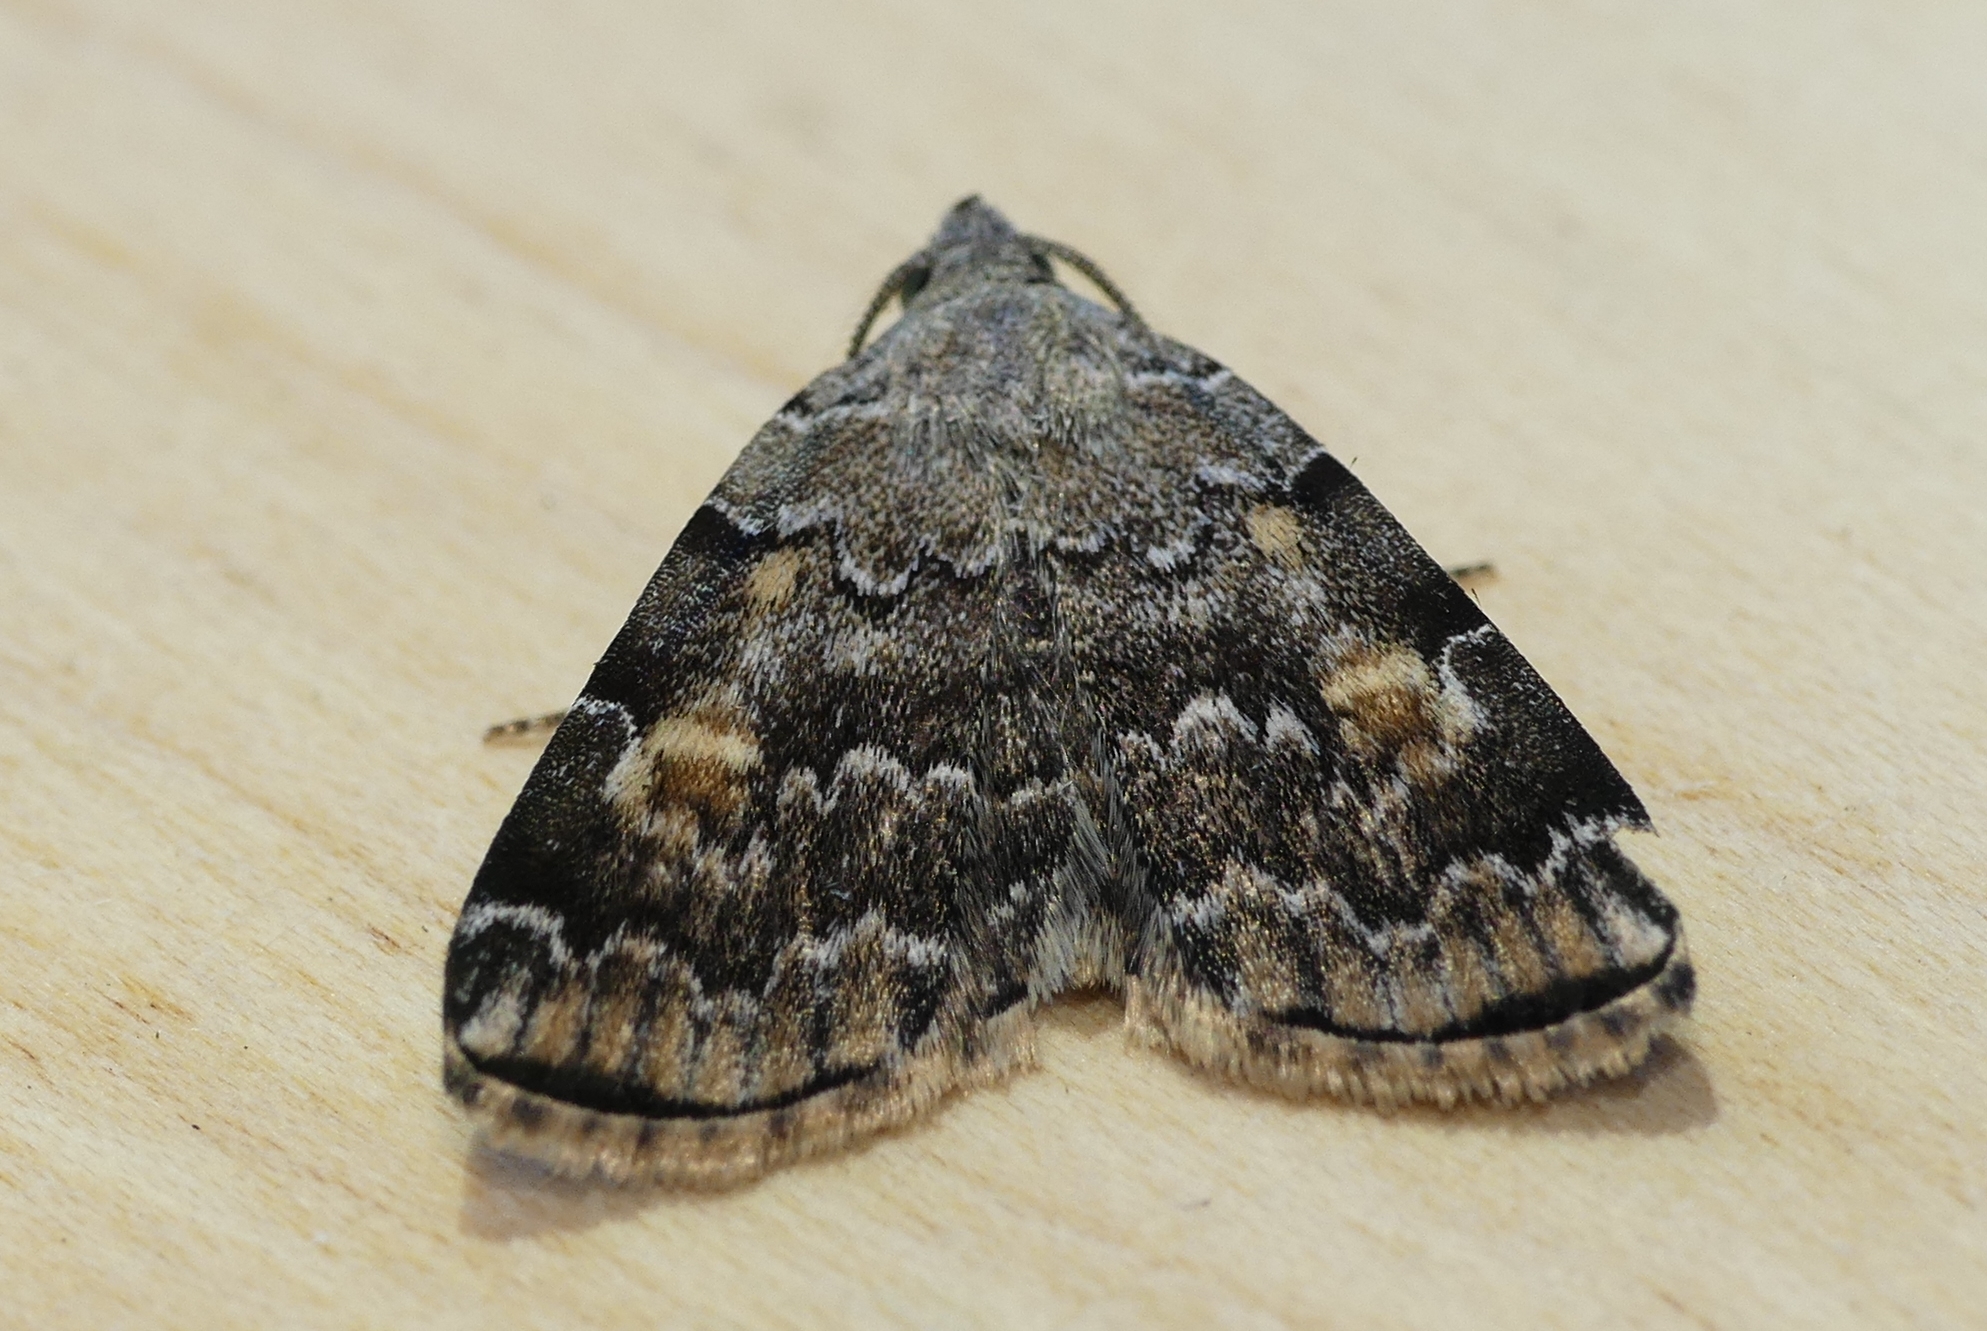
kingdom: Animalia
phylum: Arthropoda
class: Insecta
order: Lepidoptera
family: Erebidae
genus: Idia
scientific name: Idia americalis
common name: American idia moth
